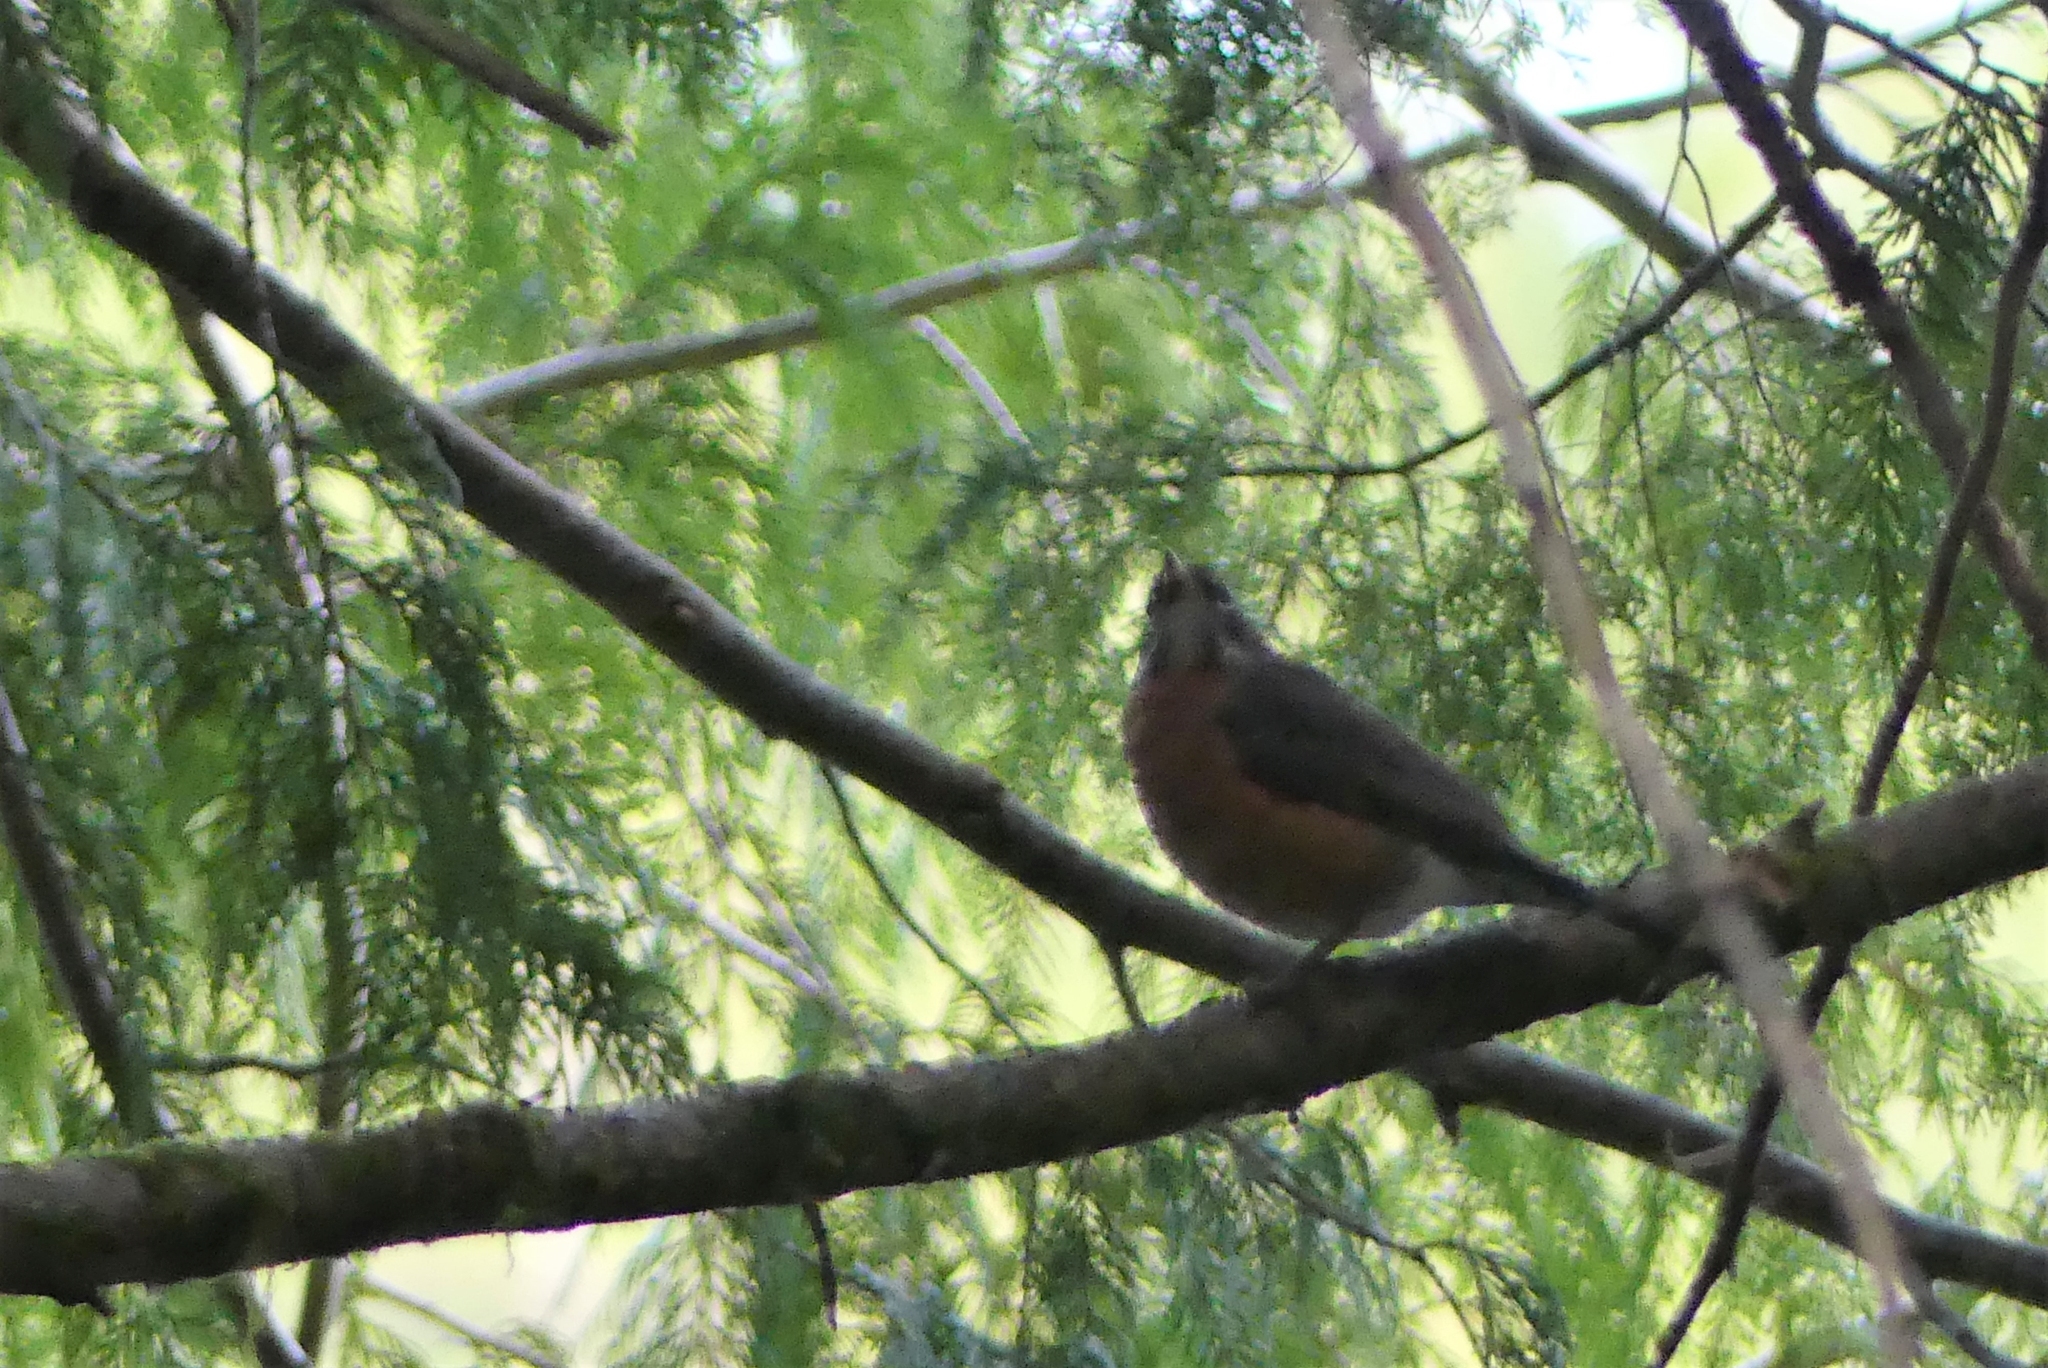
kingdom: Animalia
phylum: Chordata
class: Aves
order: Passeriformes
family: Turdidae
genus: Turdus
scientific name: Turdus migratorius
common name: American robin
